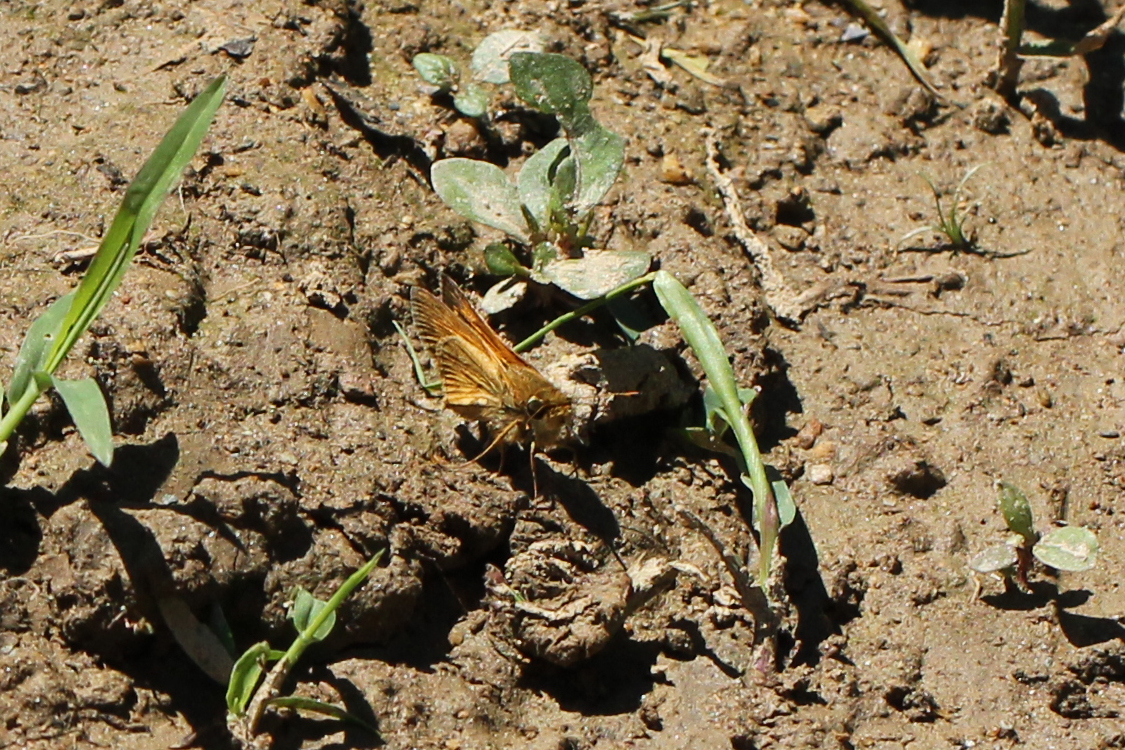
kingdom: Animalia
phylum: Arthropoda
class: Insecta
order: Lepidoptera
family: Hesperiidae
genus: Atalopedes
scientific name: Atalopedes
